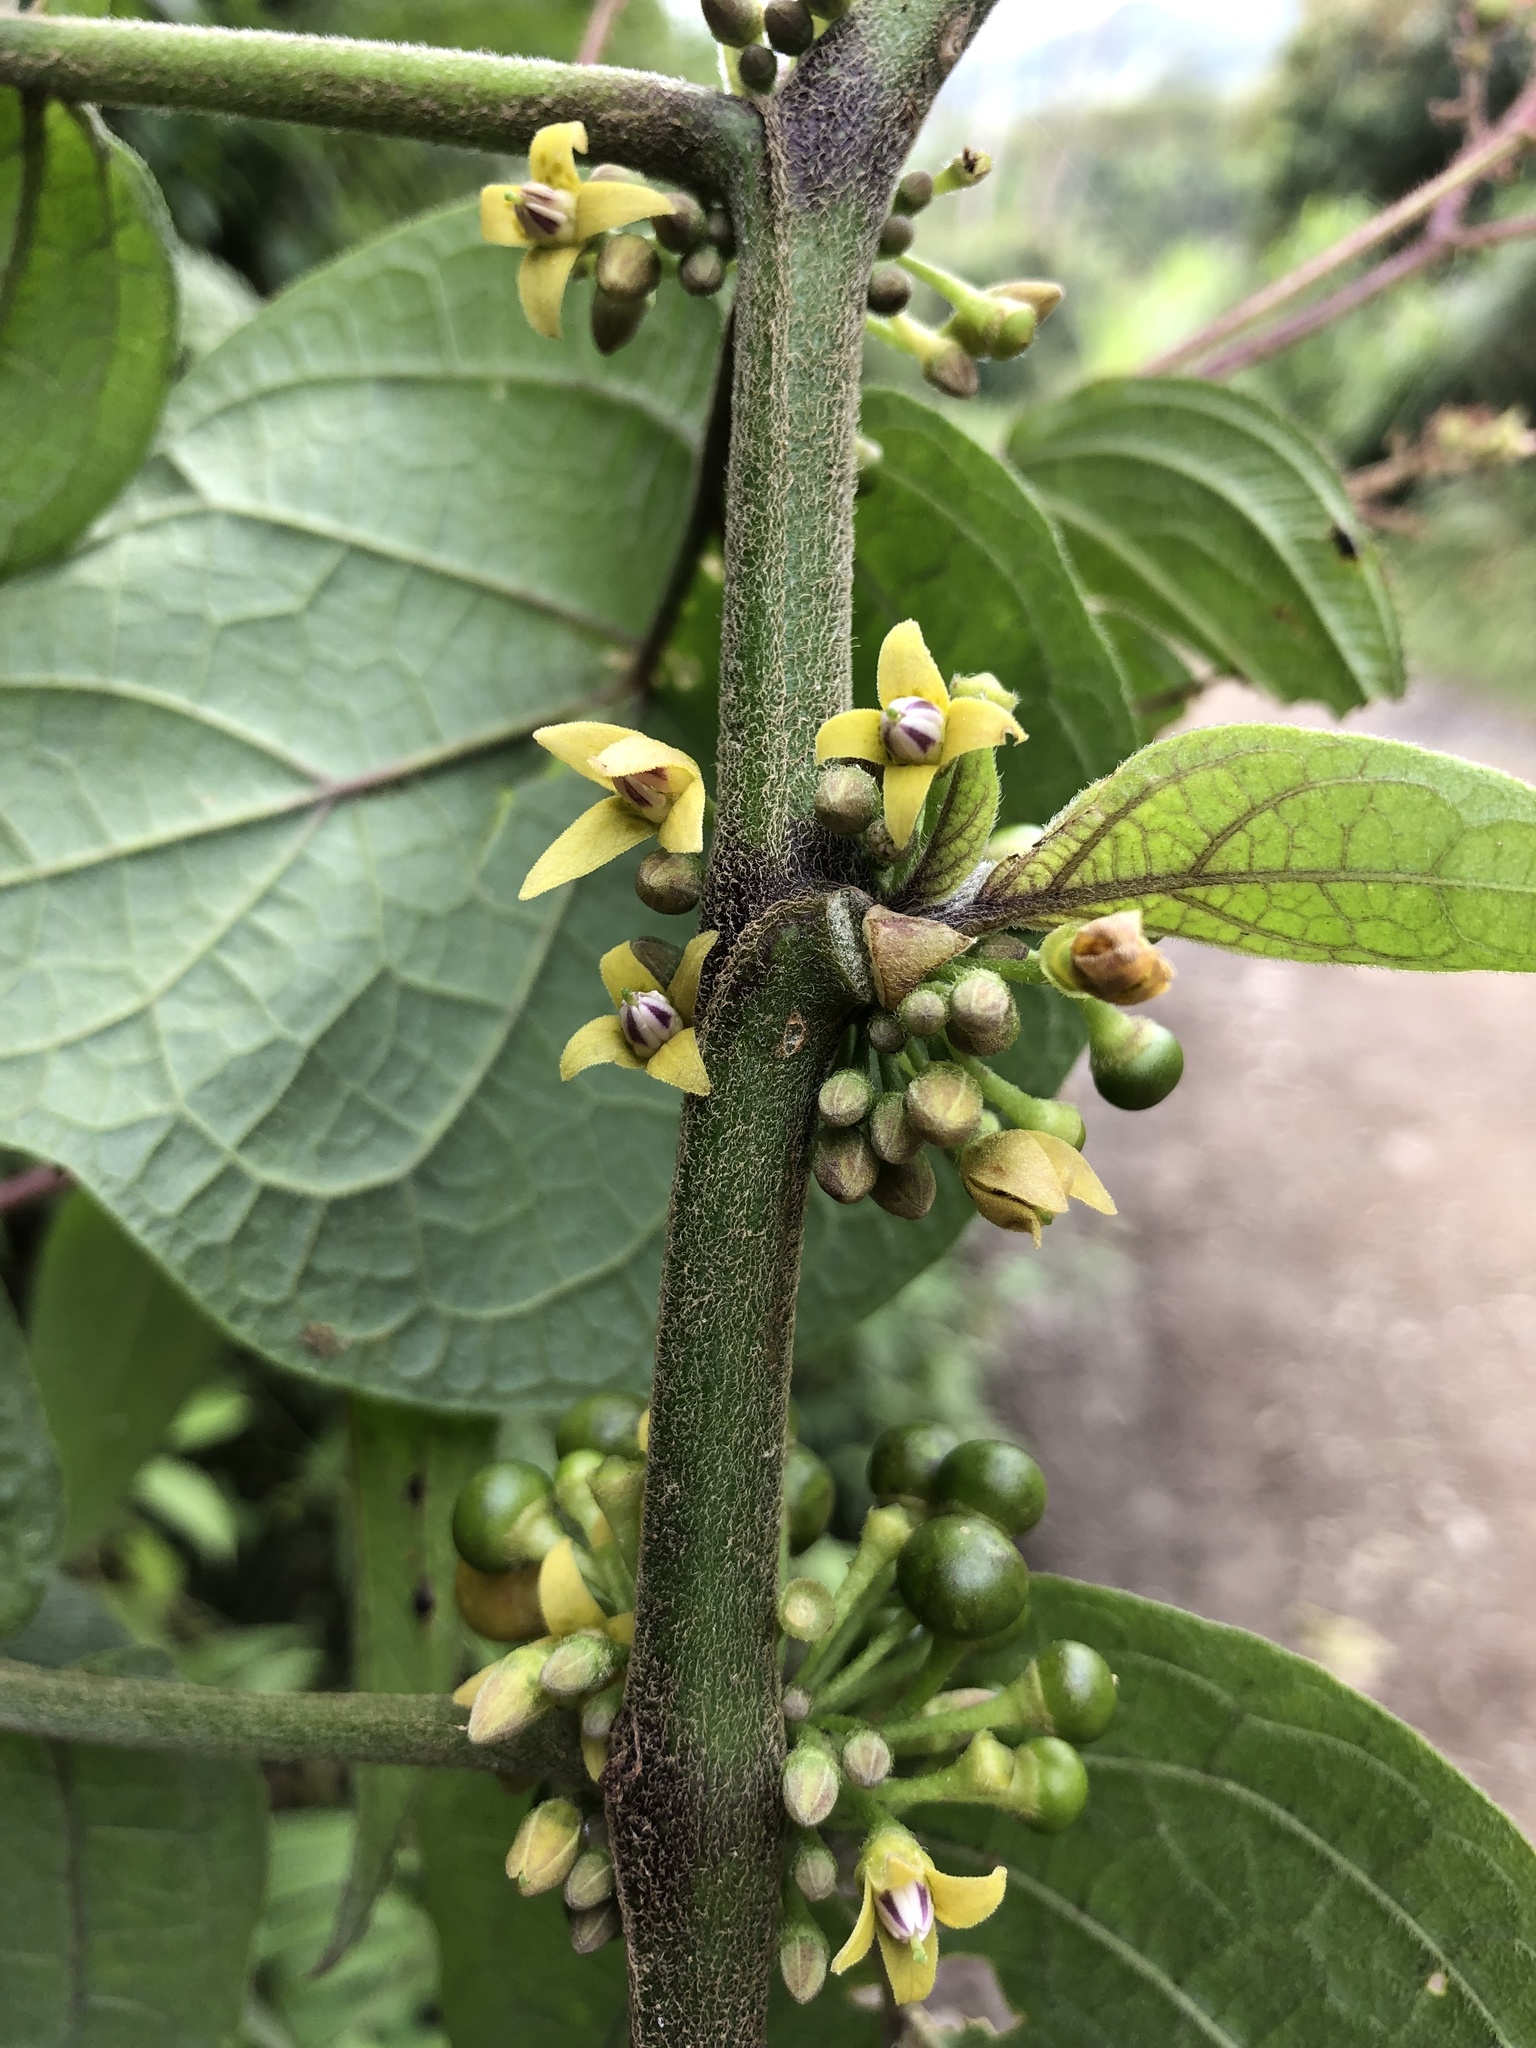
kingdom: Plantae
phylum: Tracheophyta
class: Magnoliopsida
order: Solanales
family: Solanaceae
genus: Witheringia
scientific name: Witheringia solanacea
